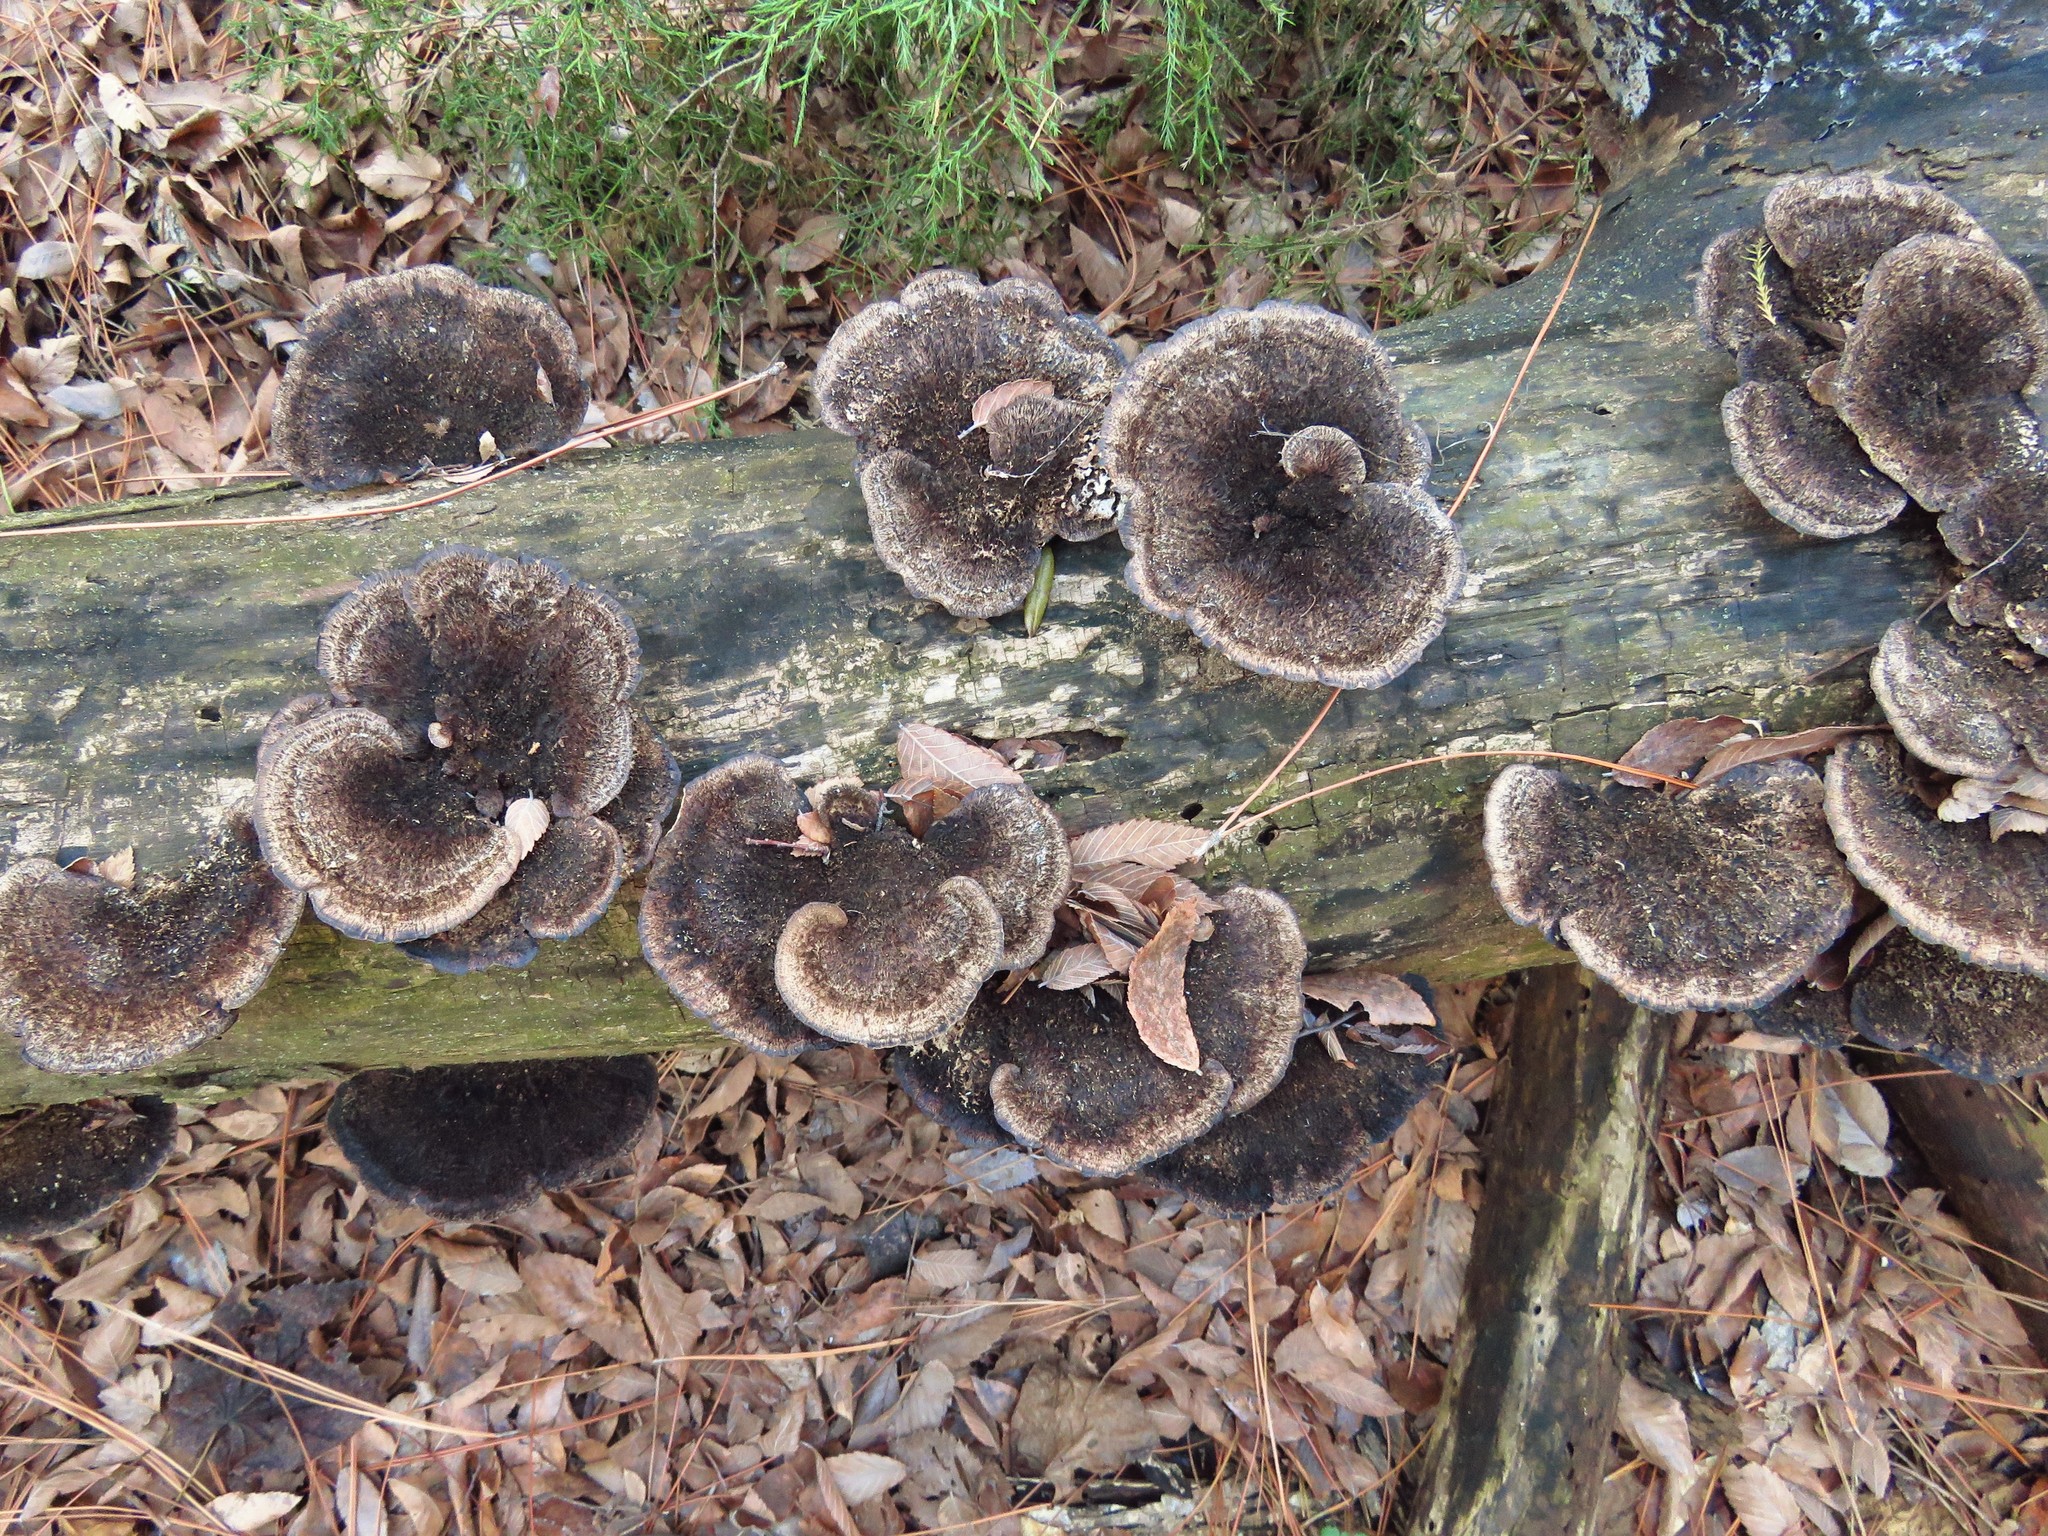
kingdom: Fungi
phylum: Basidiomycota
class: Agaricomycetes
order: Polyporales
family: Cerrenaceae
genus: Cerrena
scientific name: Cerrena hydnoides
